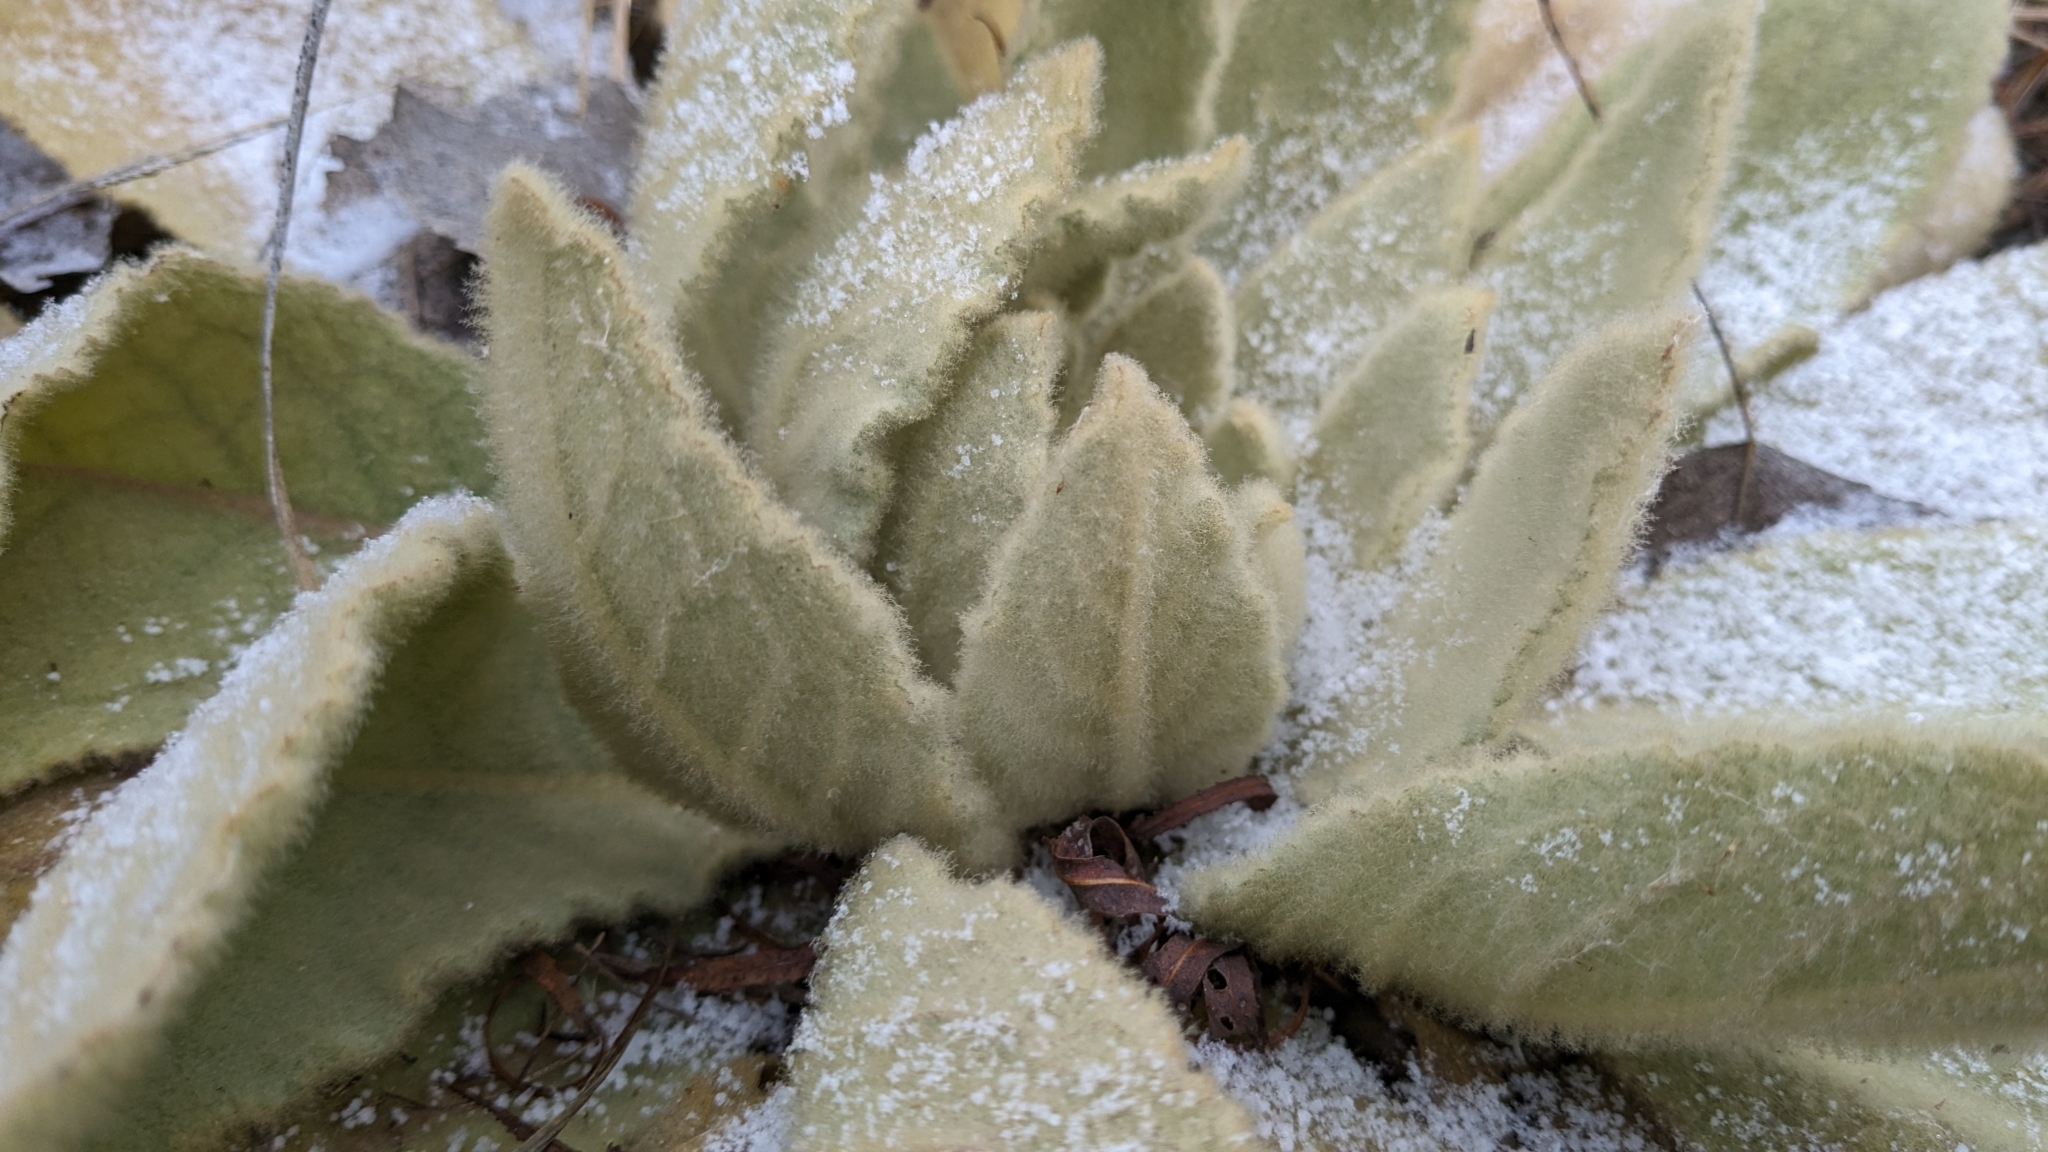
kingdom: Plantae
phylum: Tracheophyta
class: Magnoliopsida
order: Lamiales
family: Scrophulariaceae
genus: Verbascum
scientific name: Verbascum thapsus
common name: Common mullein
